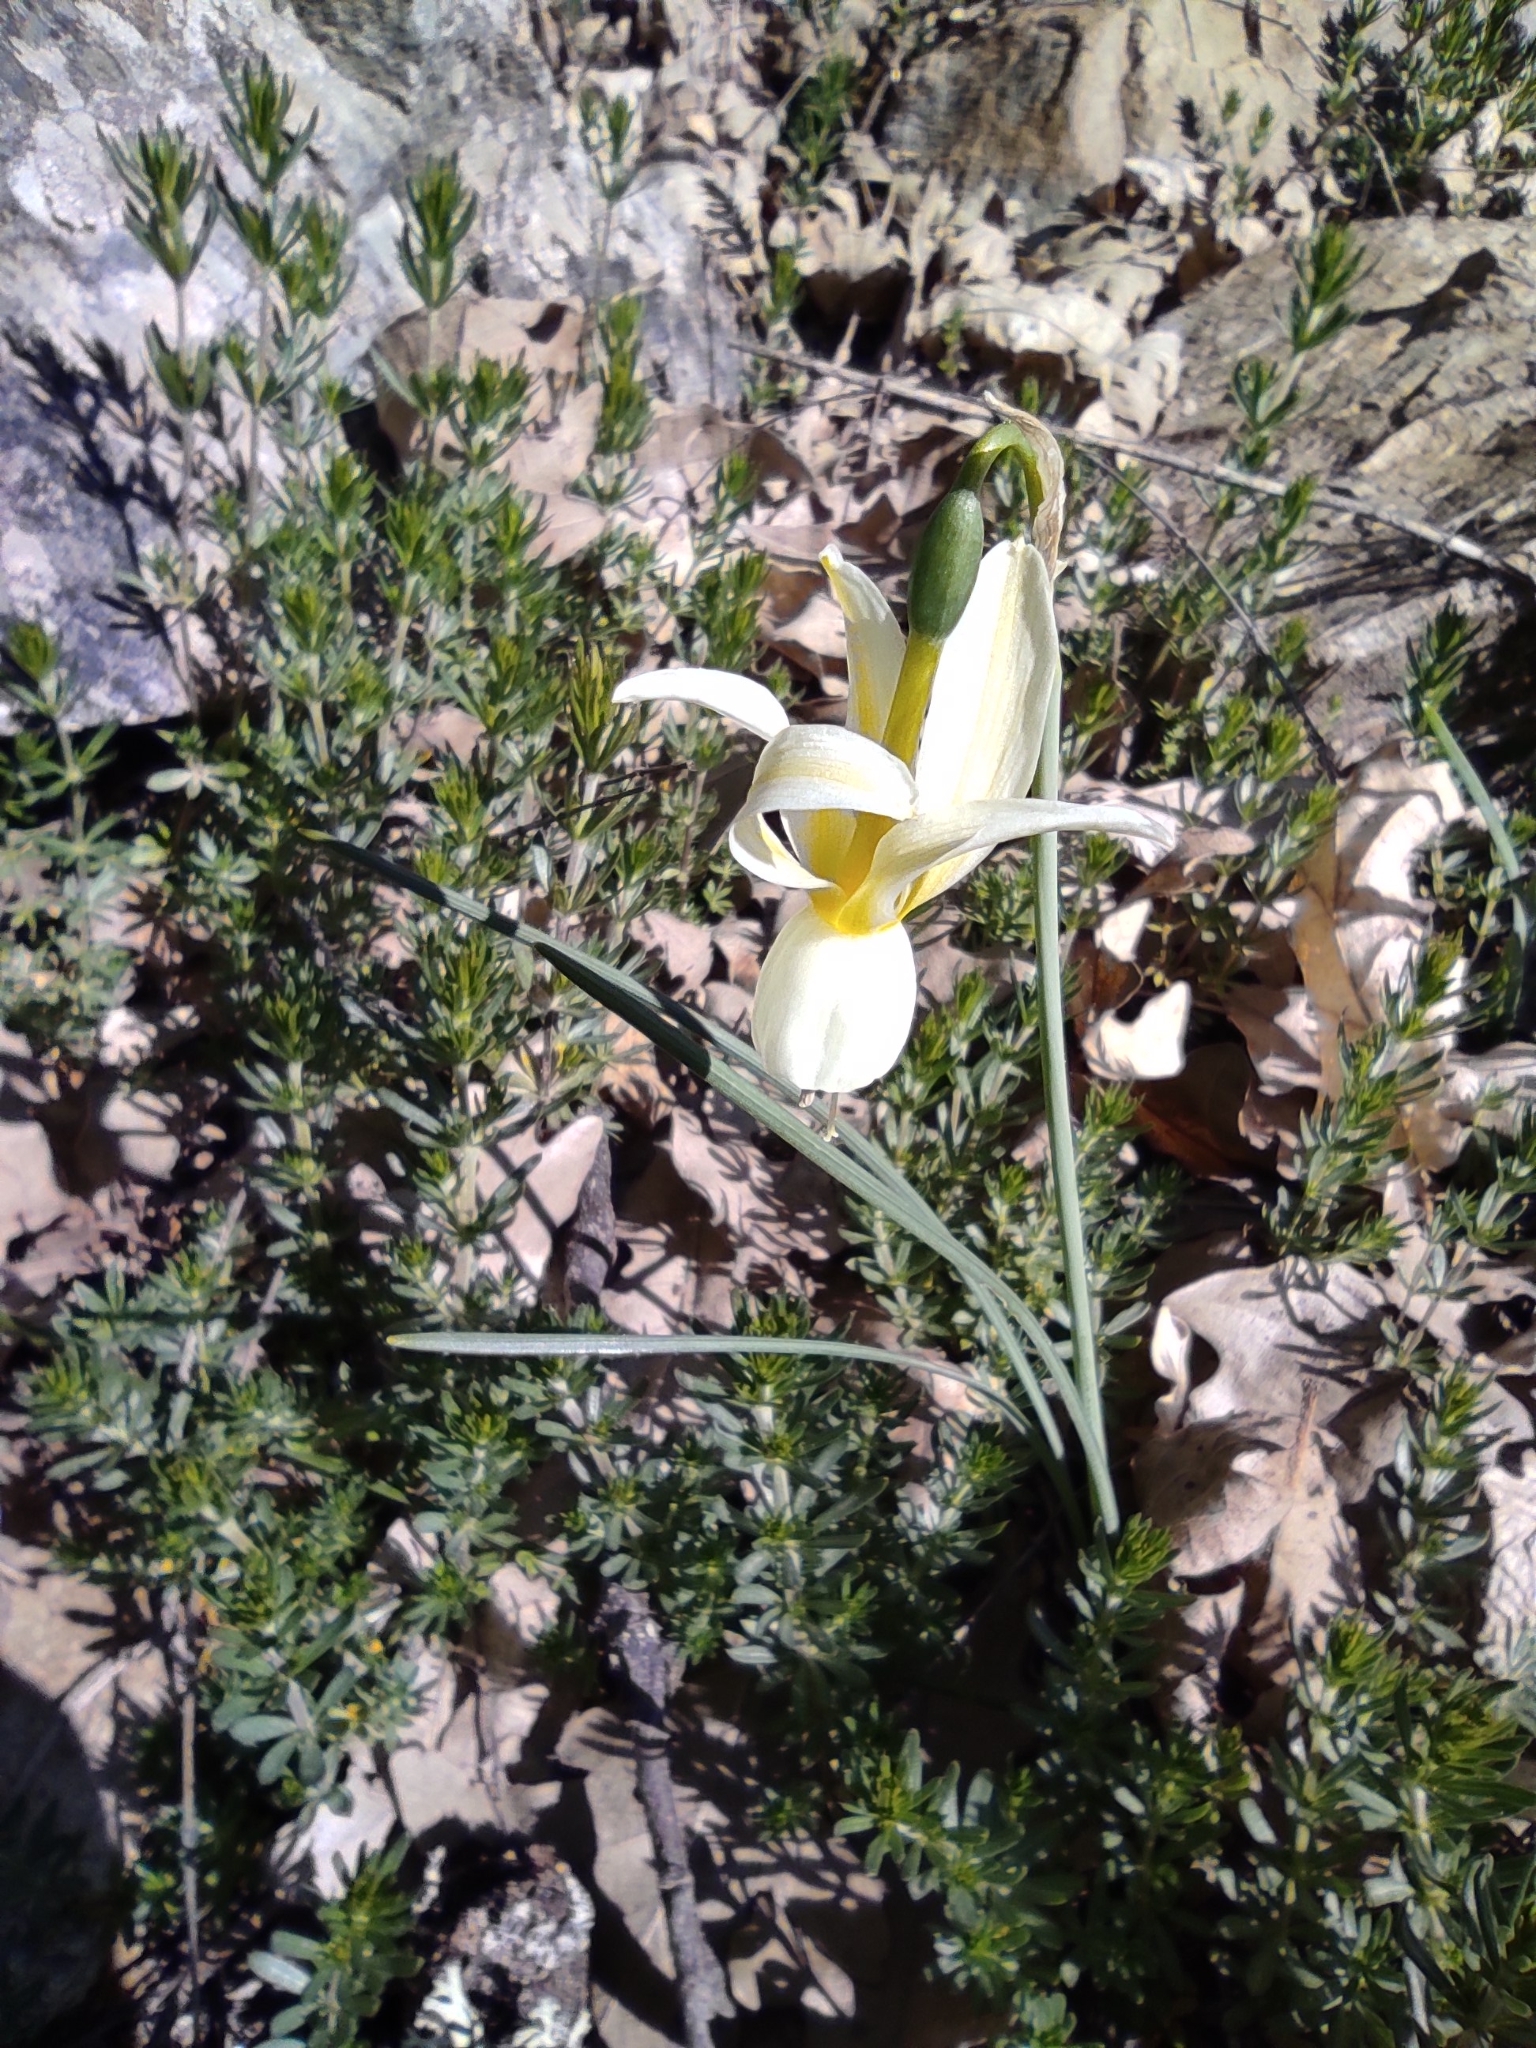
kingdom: Plantae
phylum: Tracheophyta
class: Liliopsida
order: Asparagales
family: Amaryllidaceae
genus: Narcissus
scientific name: Narcissus triandrus
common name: Angel's-tears
